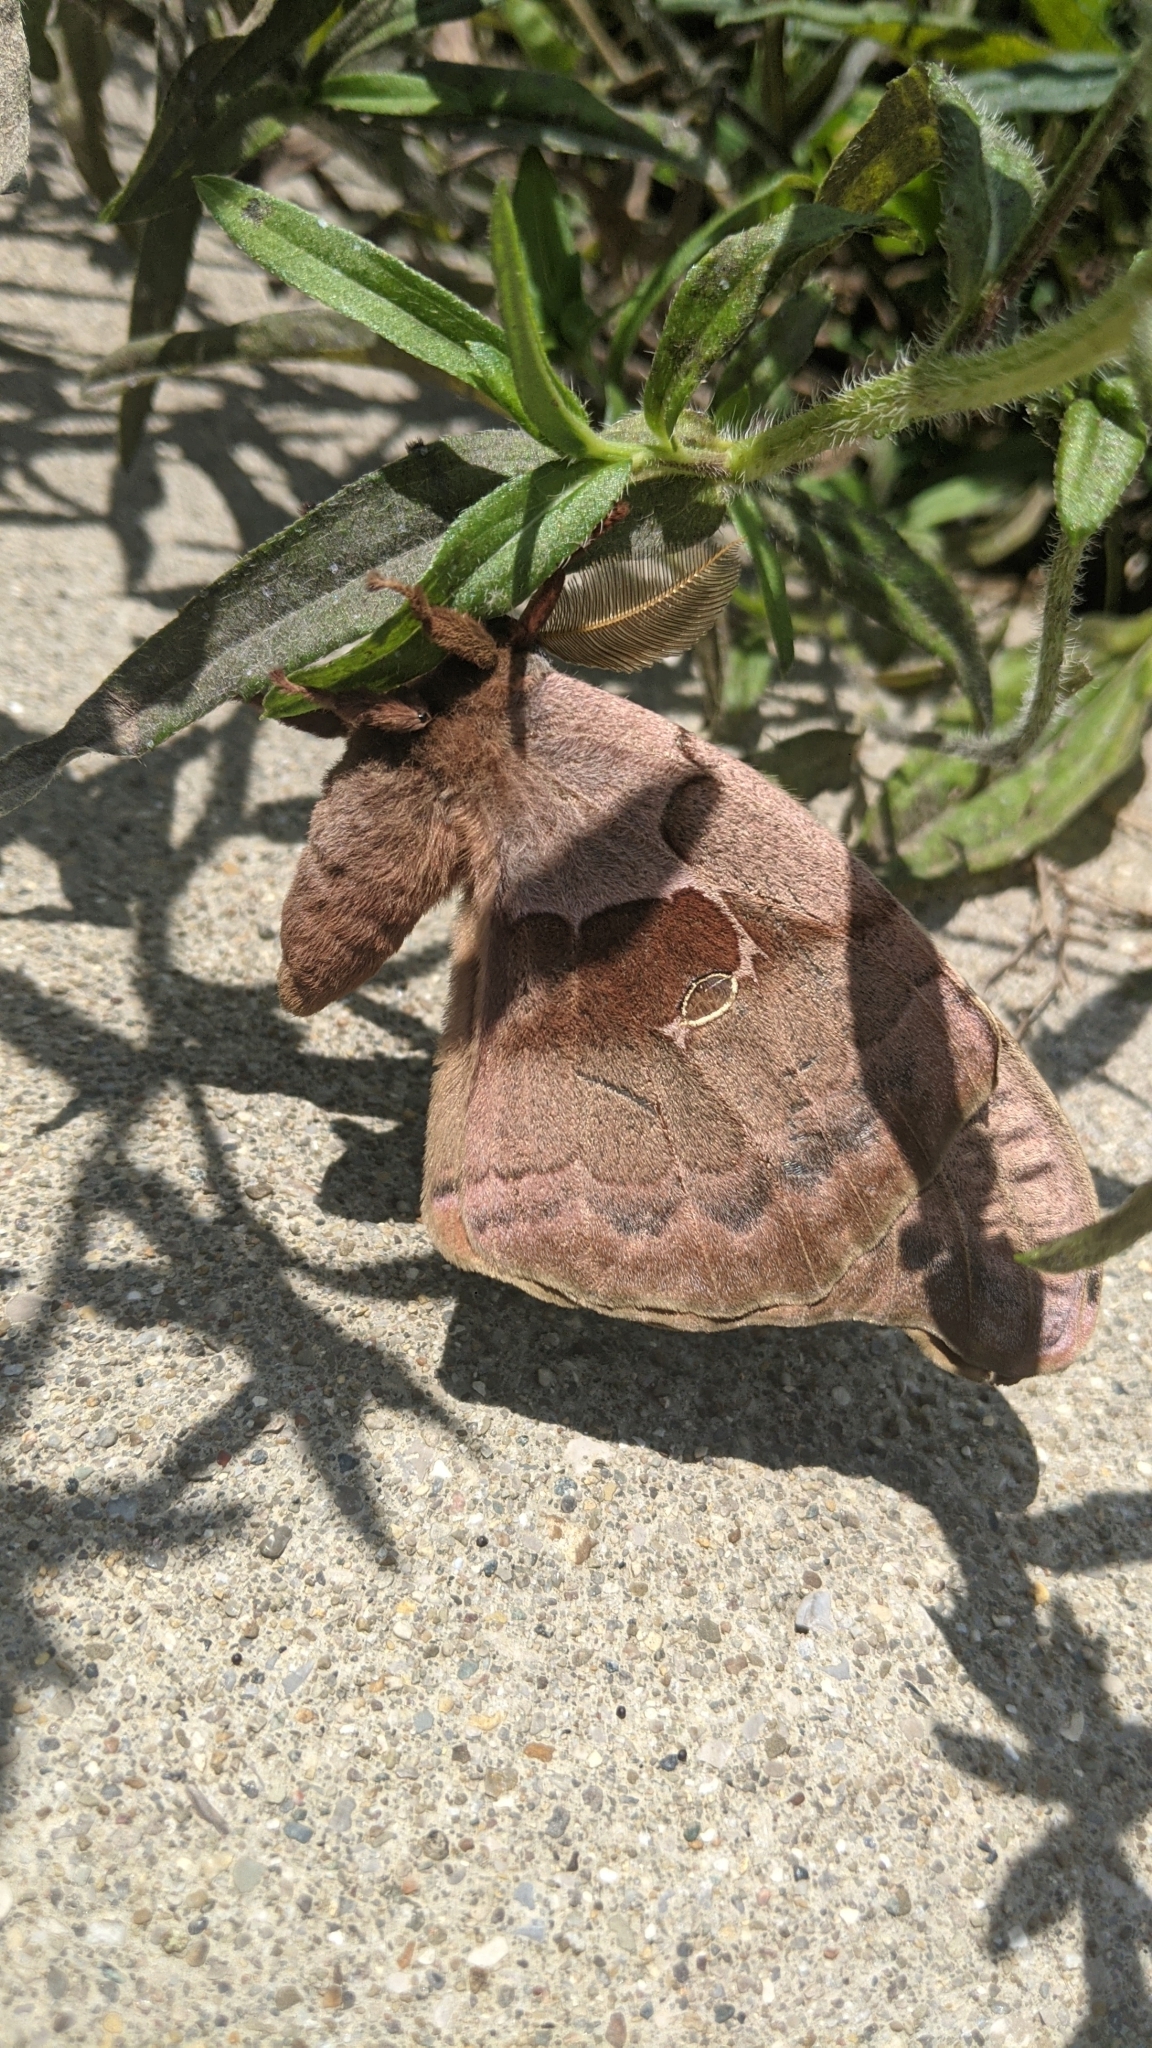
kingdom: Animalia
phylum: Arthropoda
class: Insecta
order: Lepidoptera
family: Saturniidae
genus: Antheraea
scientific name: Antheraea polyphemus
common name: Polyphemus moth
